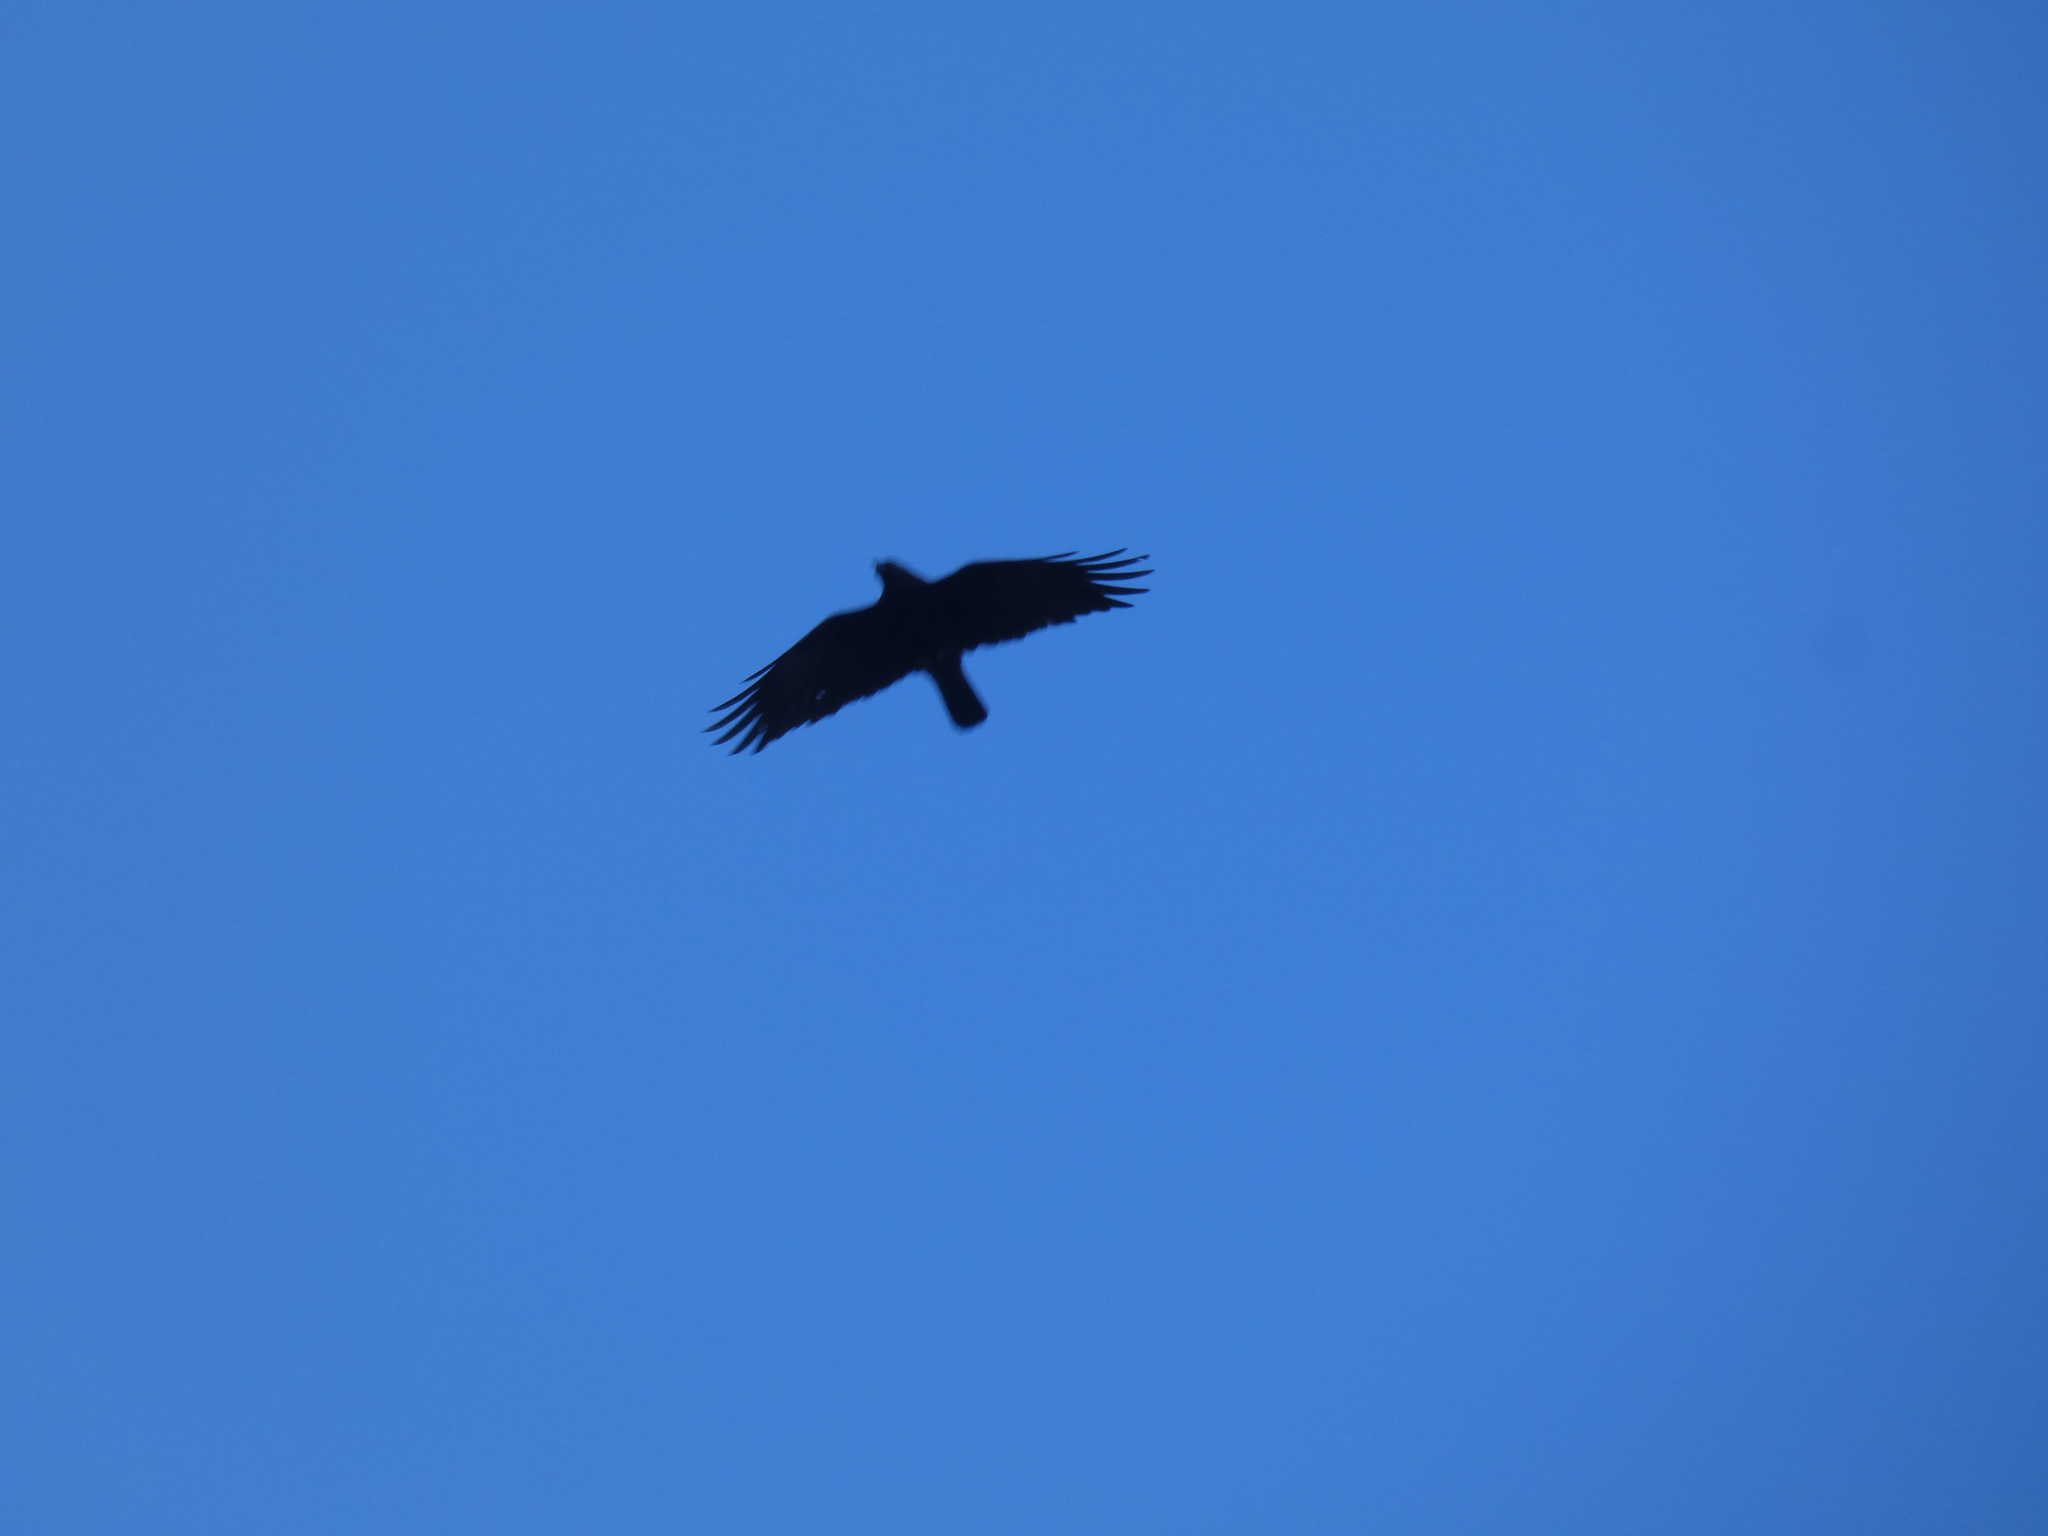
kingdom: Animalia
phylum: Chordata
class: Aves
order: Passeriformes
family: Corvidae
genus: Corvus
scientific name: Corvus brachyrhynchos
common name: American crow
